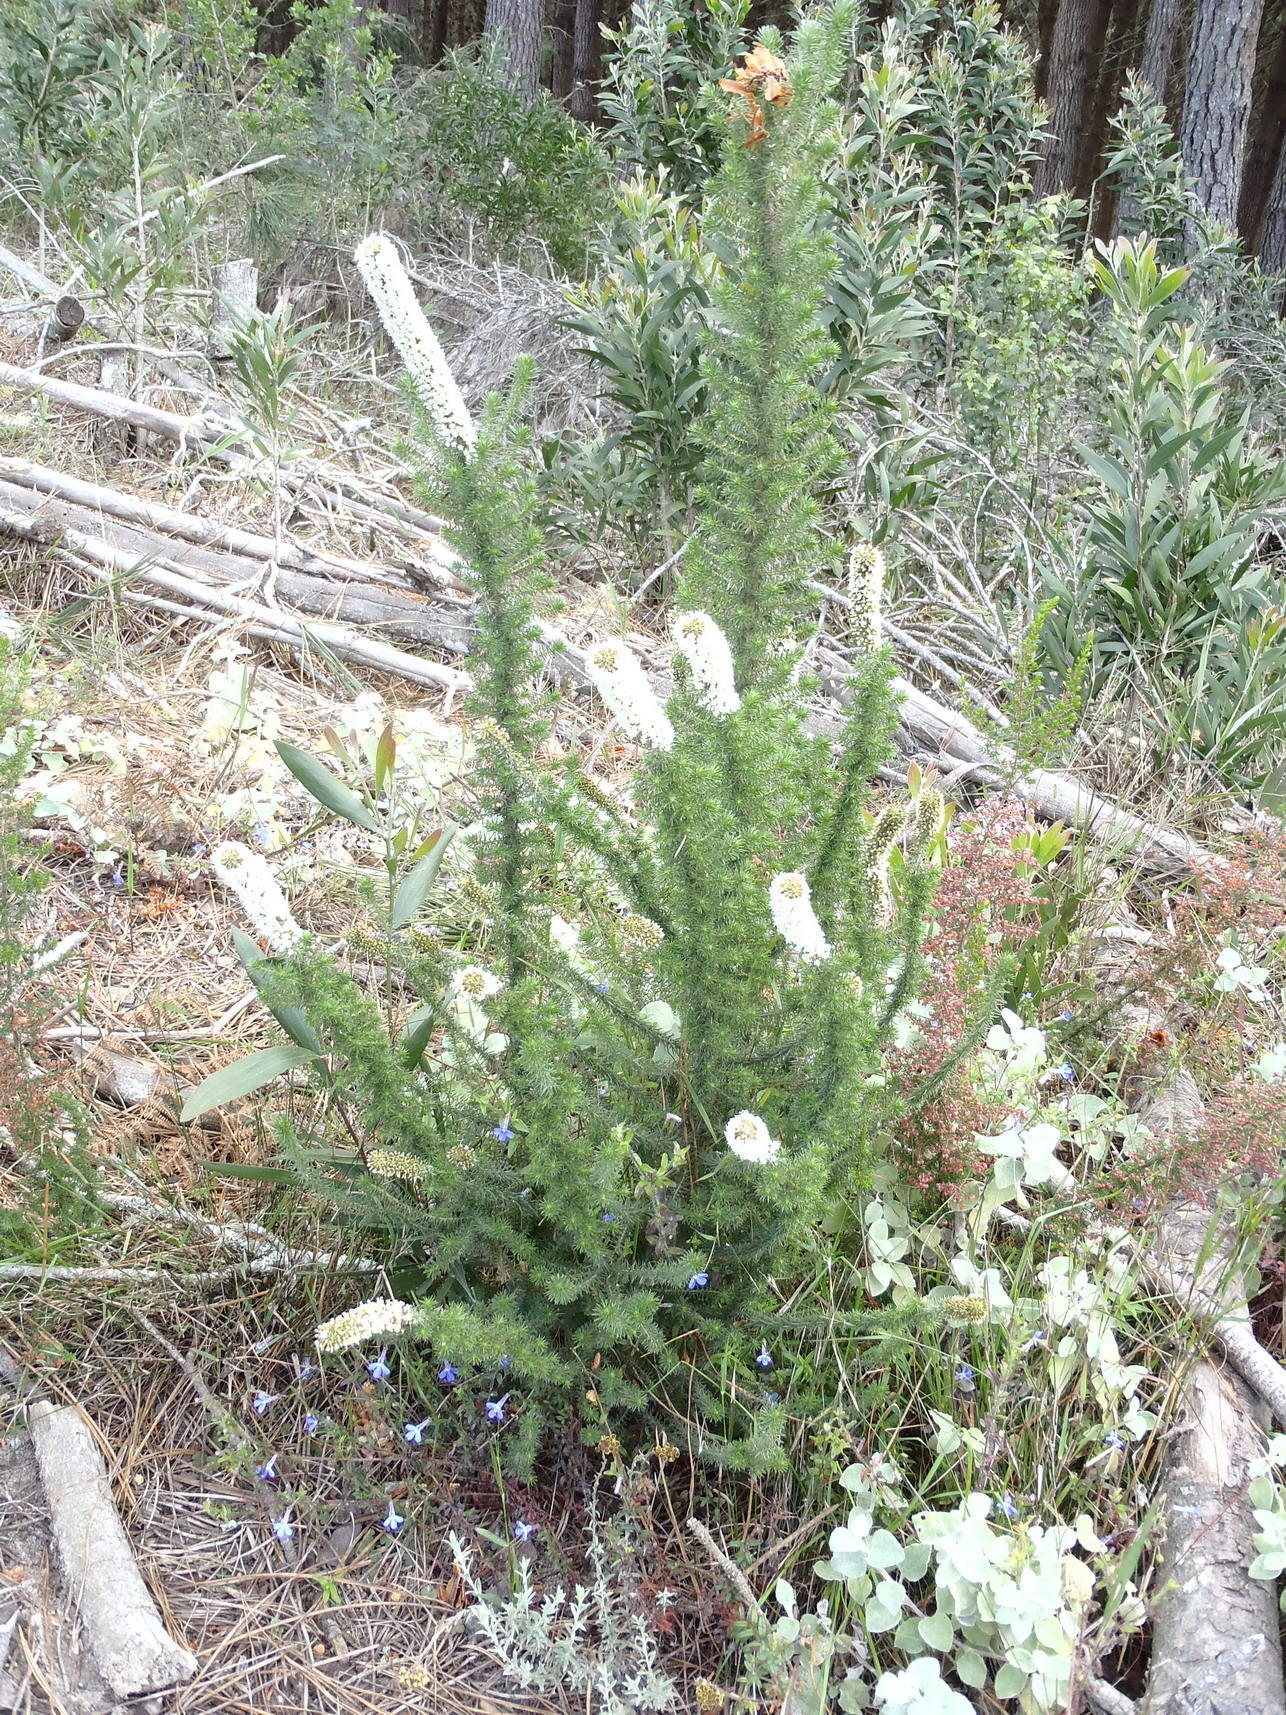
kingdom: Plantae
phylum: Tracheophyta
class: Magnoliopsida
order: Asterales
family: Asteraceae
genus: Stoebe
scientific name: Stoebe alopecuroides
